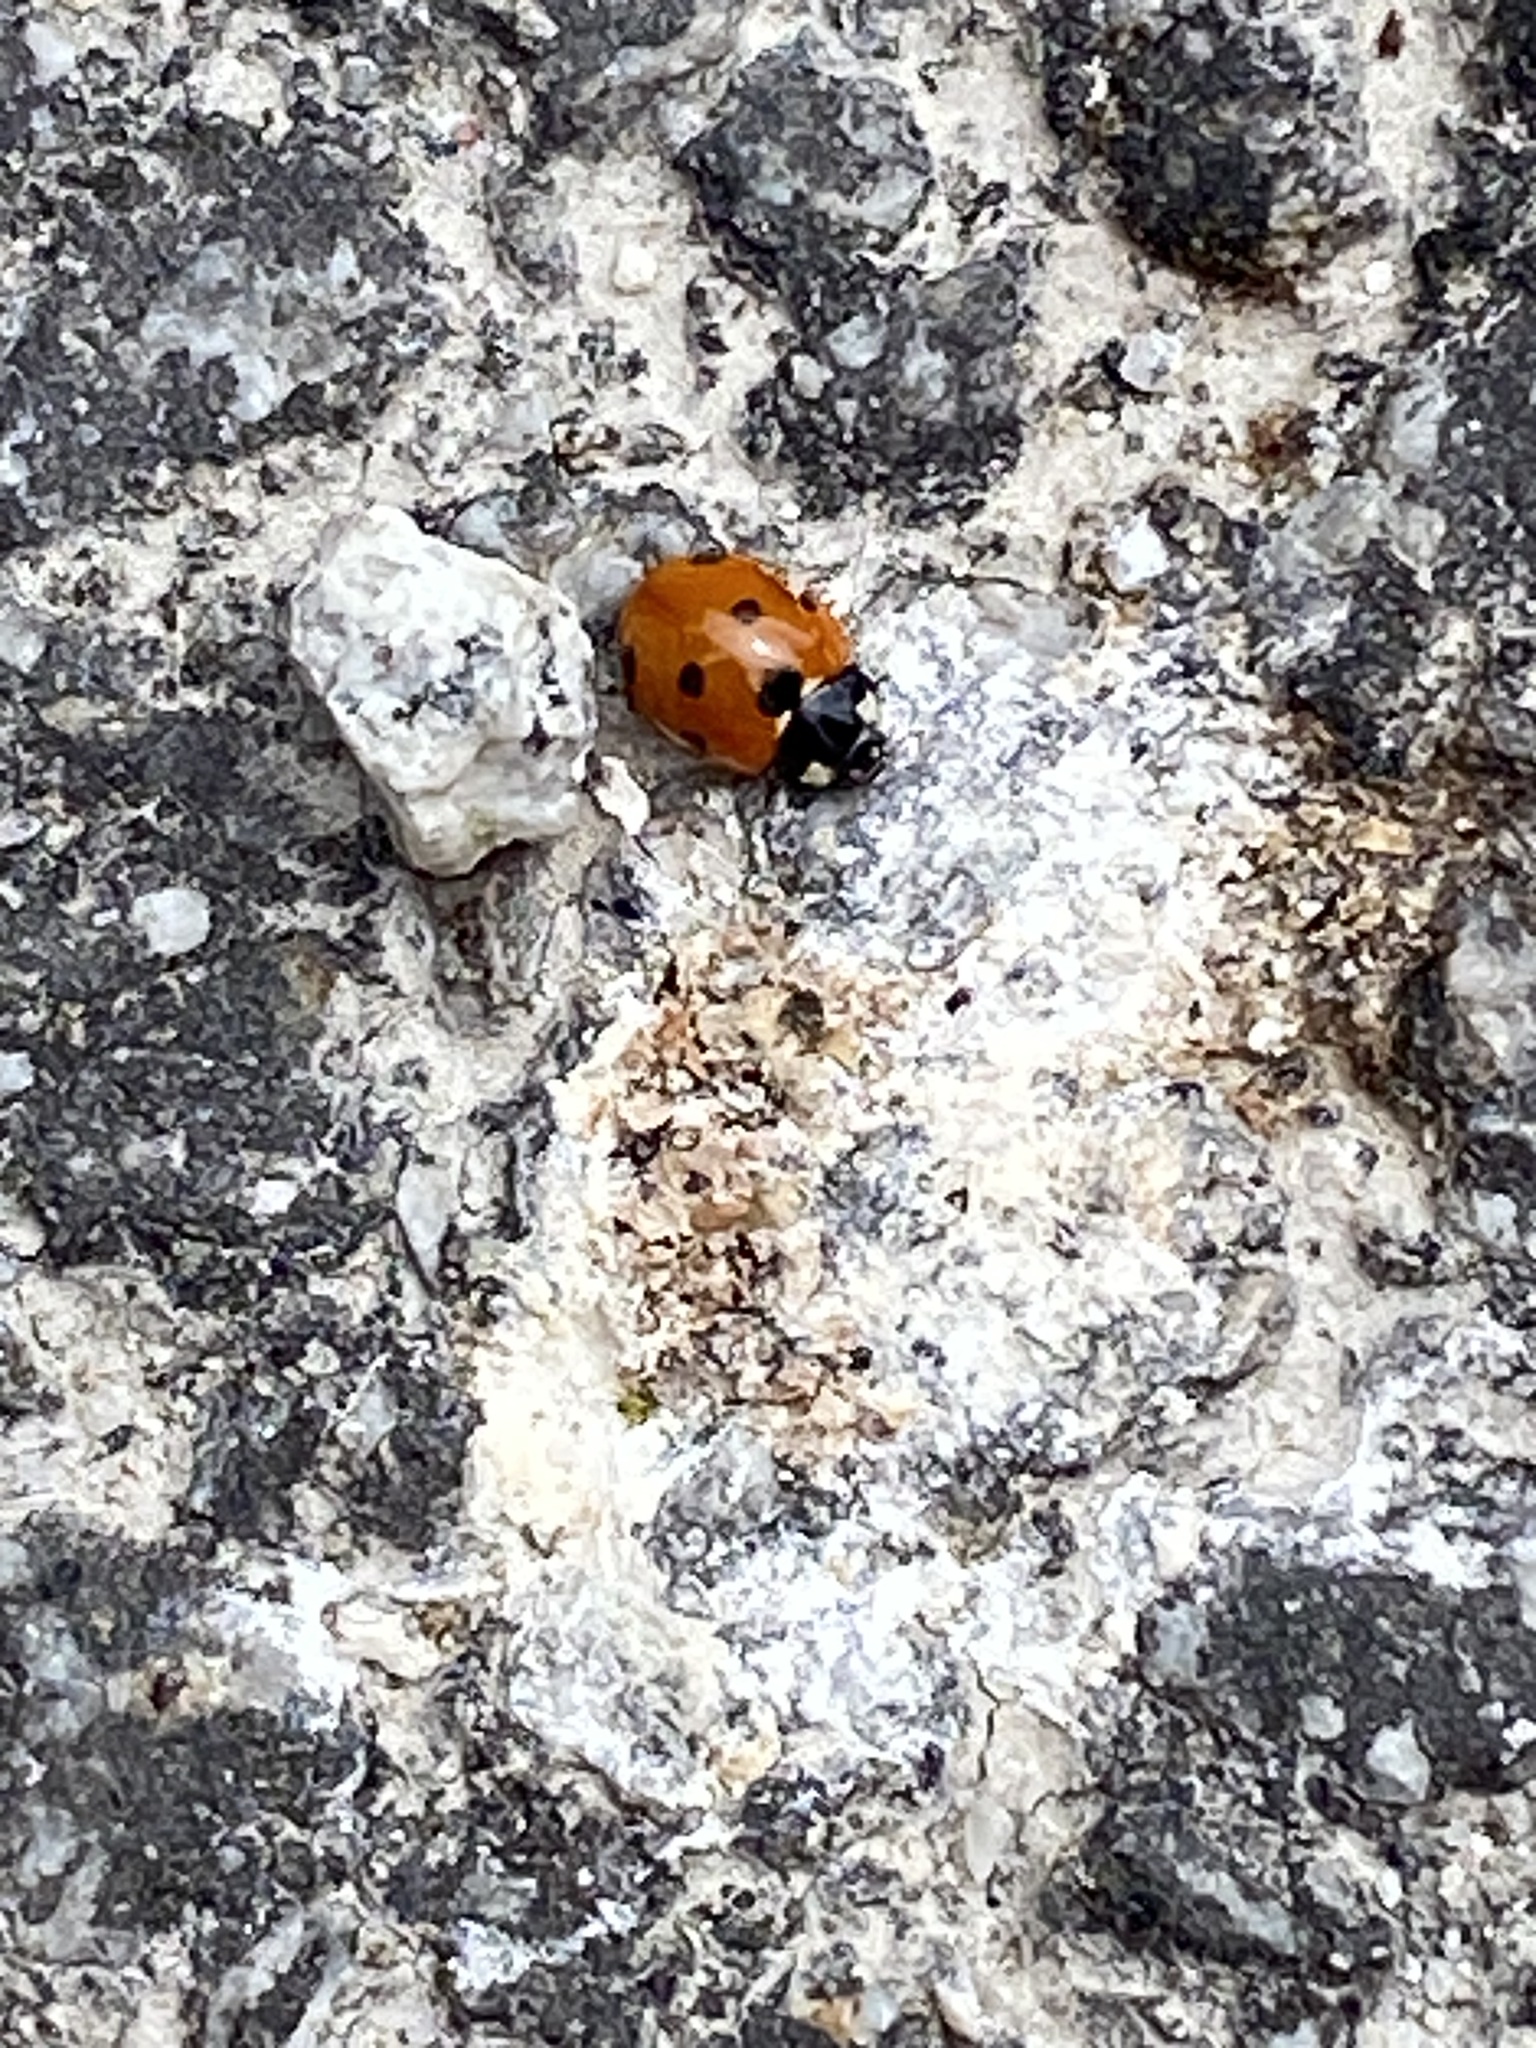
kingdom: Animalia
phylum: Arthropoda
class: Insecta
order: Coleoptera
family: Coccinellidae
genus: Coccinella
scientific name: Coccinella septempunctata
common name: Sevenspotted lady beetle
